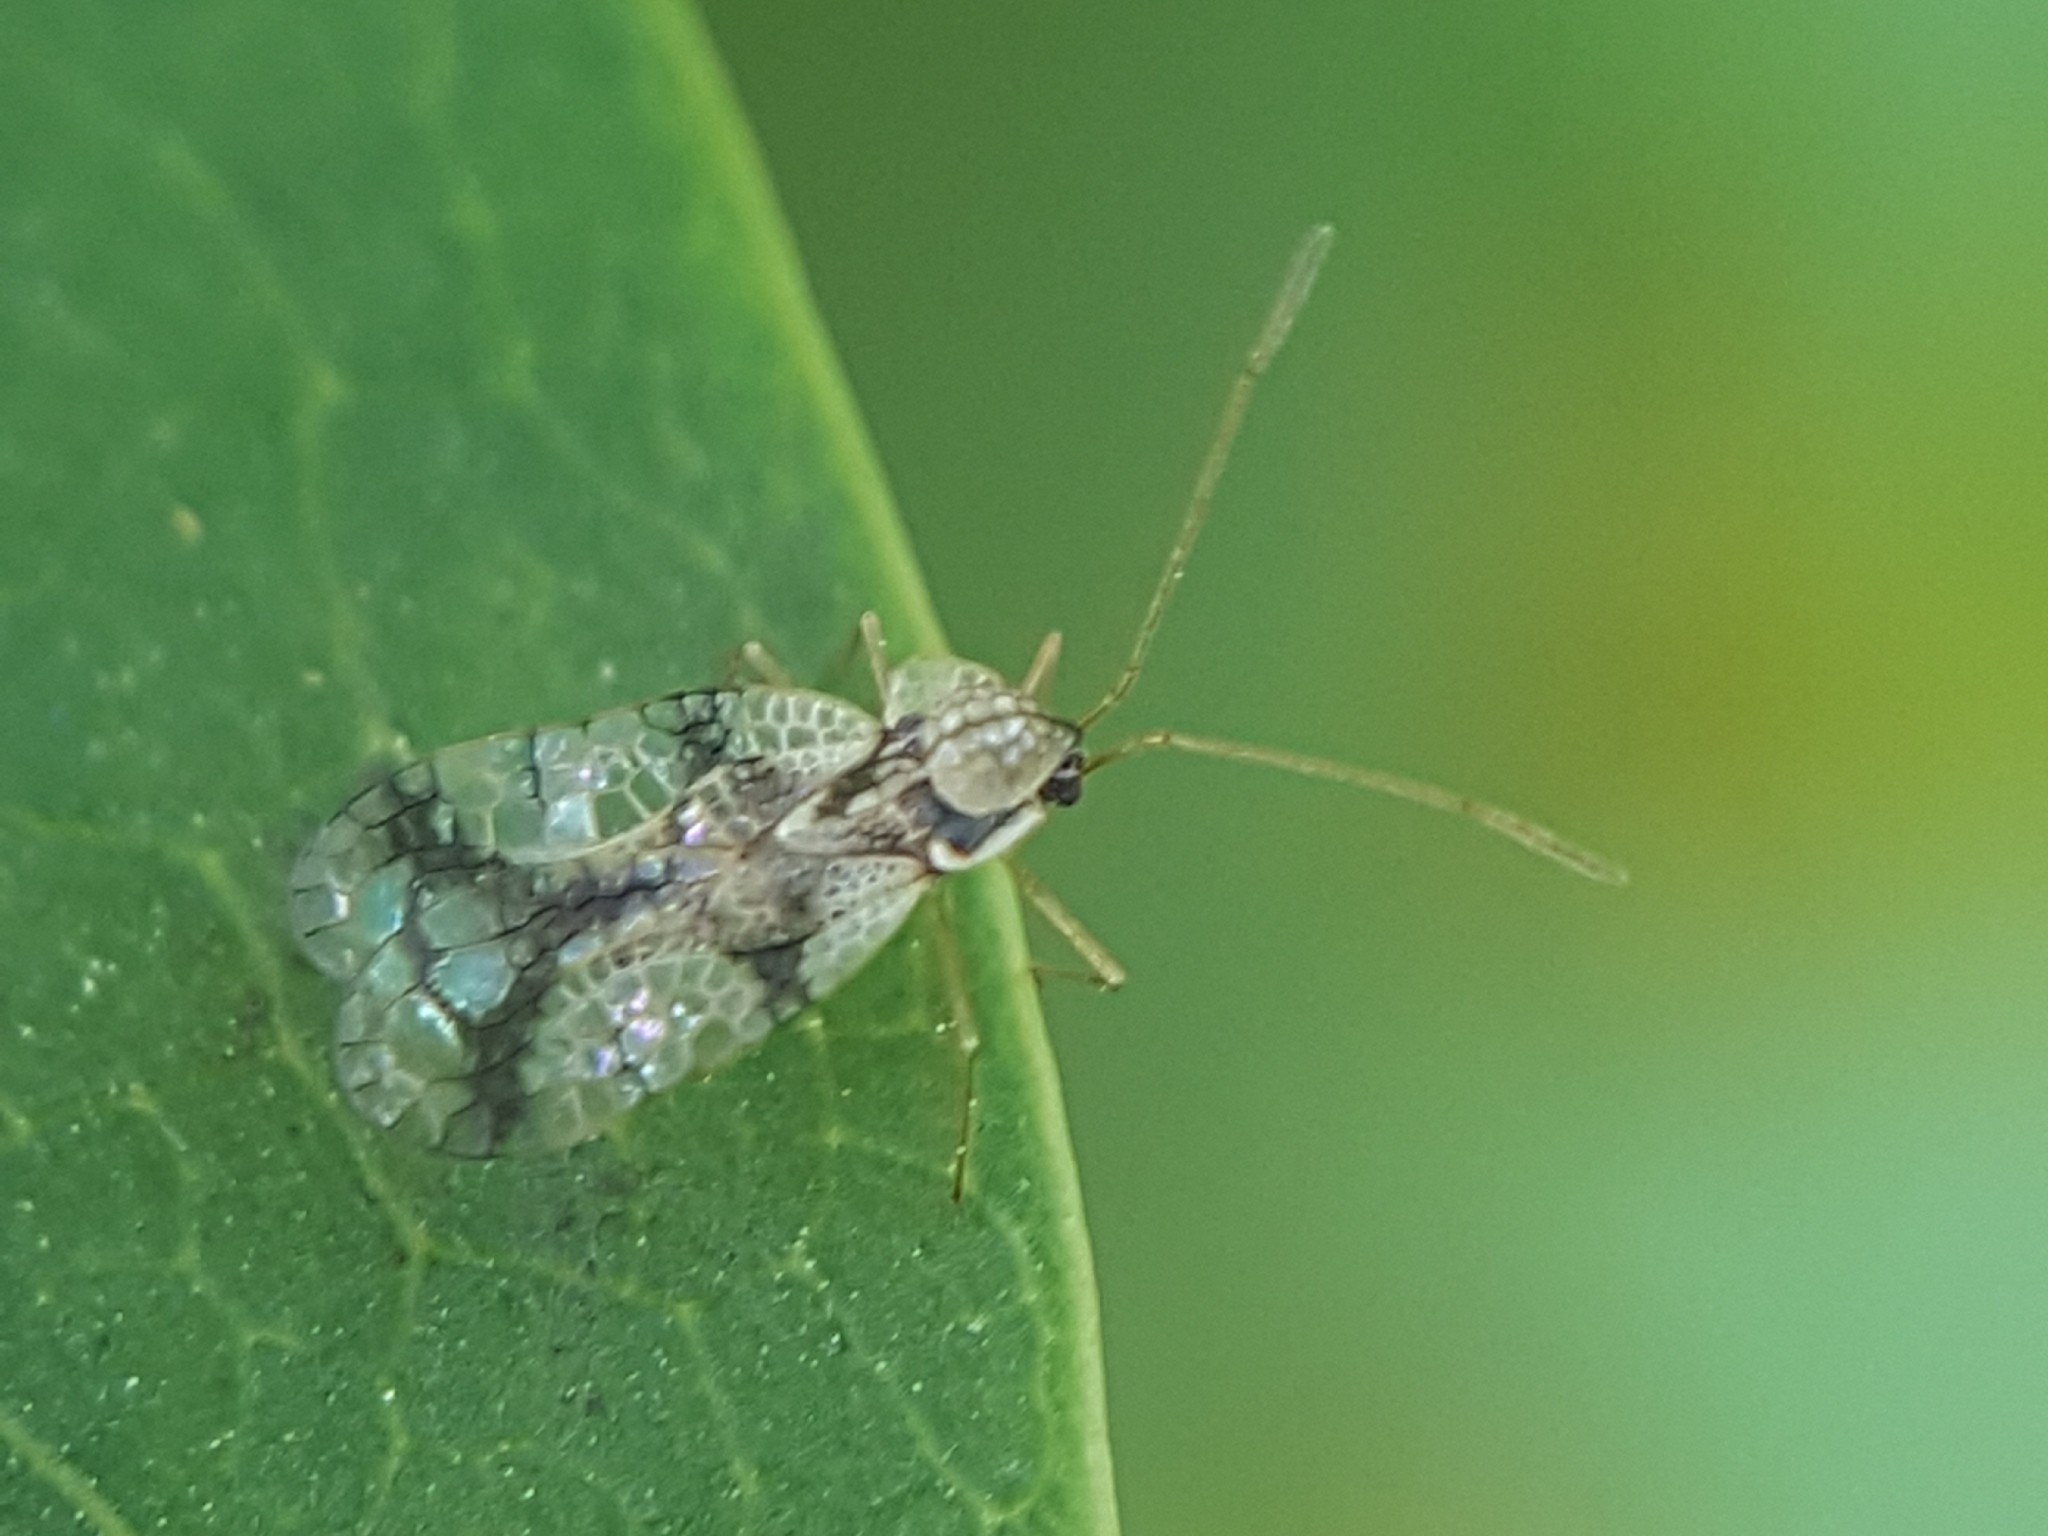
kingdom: Animalia
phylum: Arthropoda
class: Insecta
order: Hemiptera
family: Tingidae
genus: Stephanitis
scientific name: Stephanitis pyrioides
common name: Azalea lace bug
